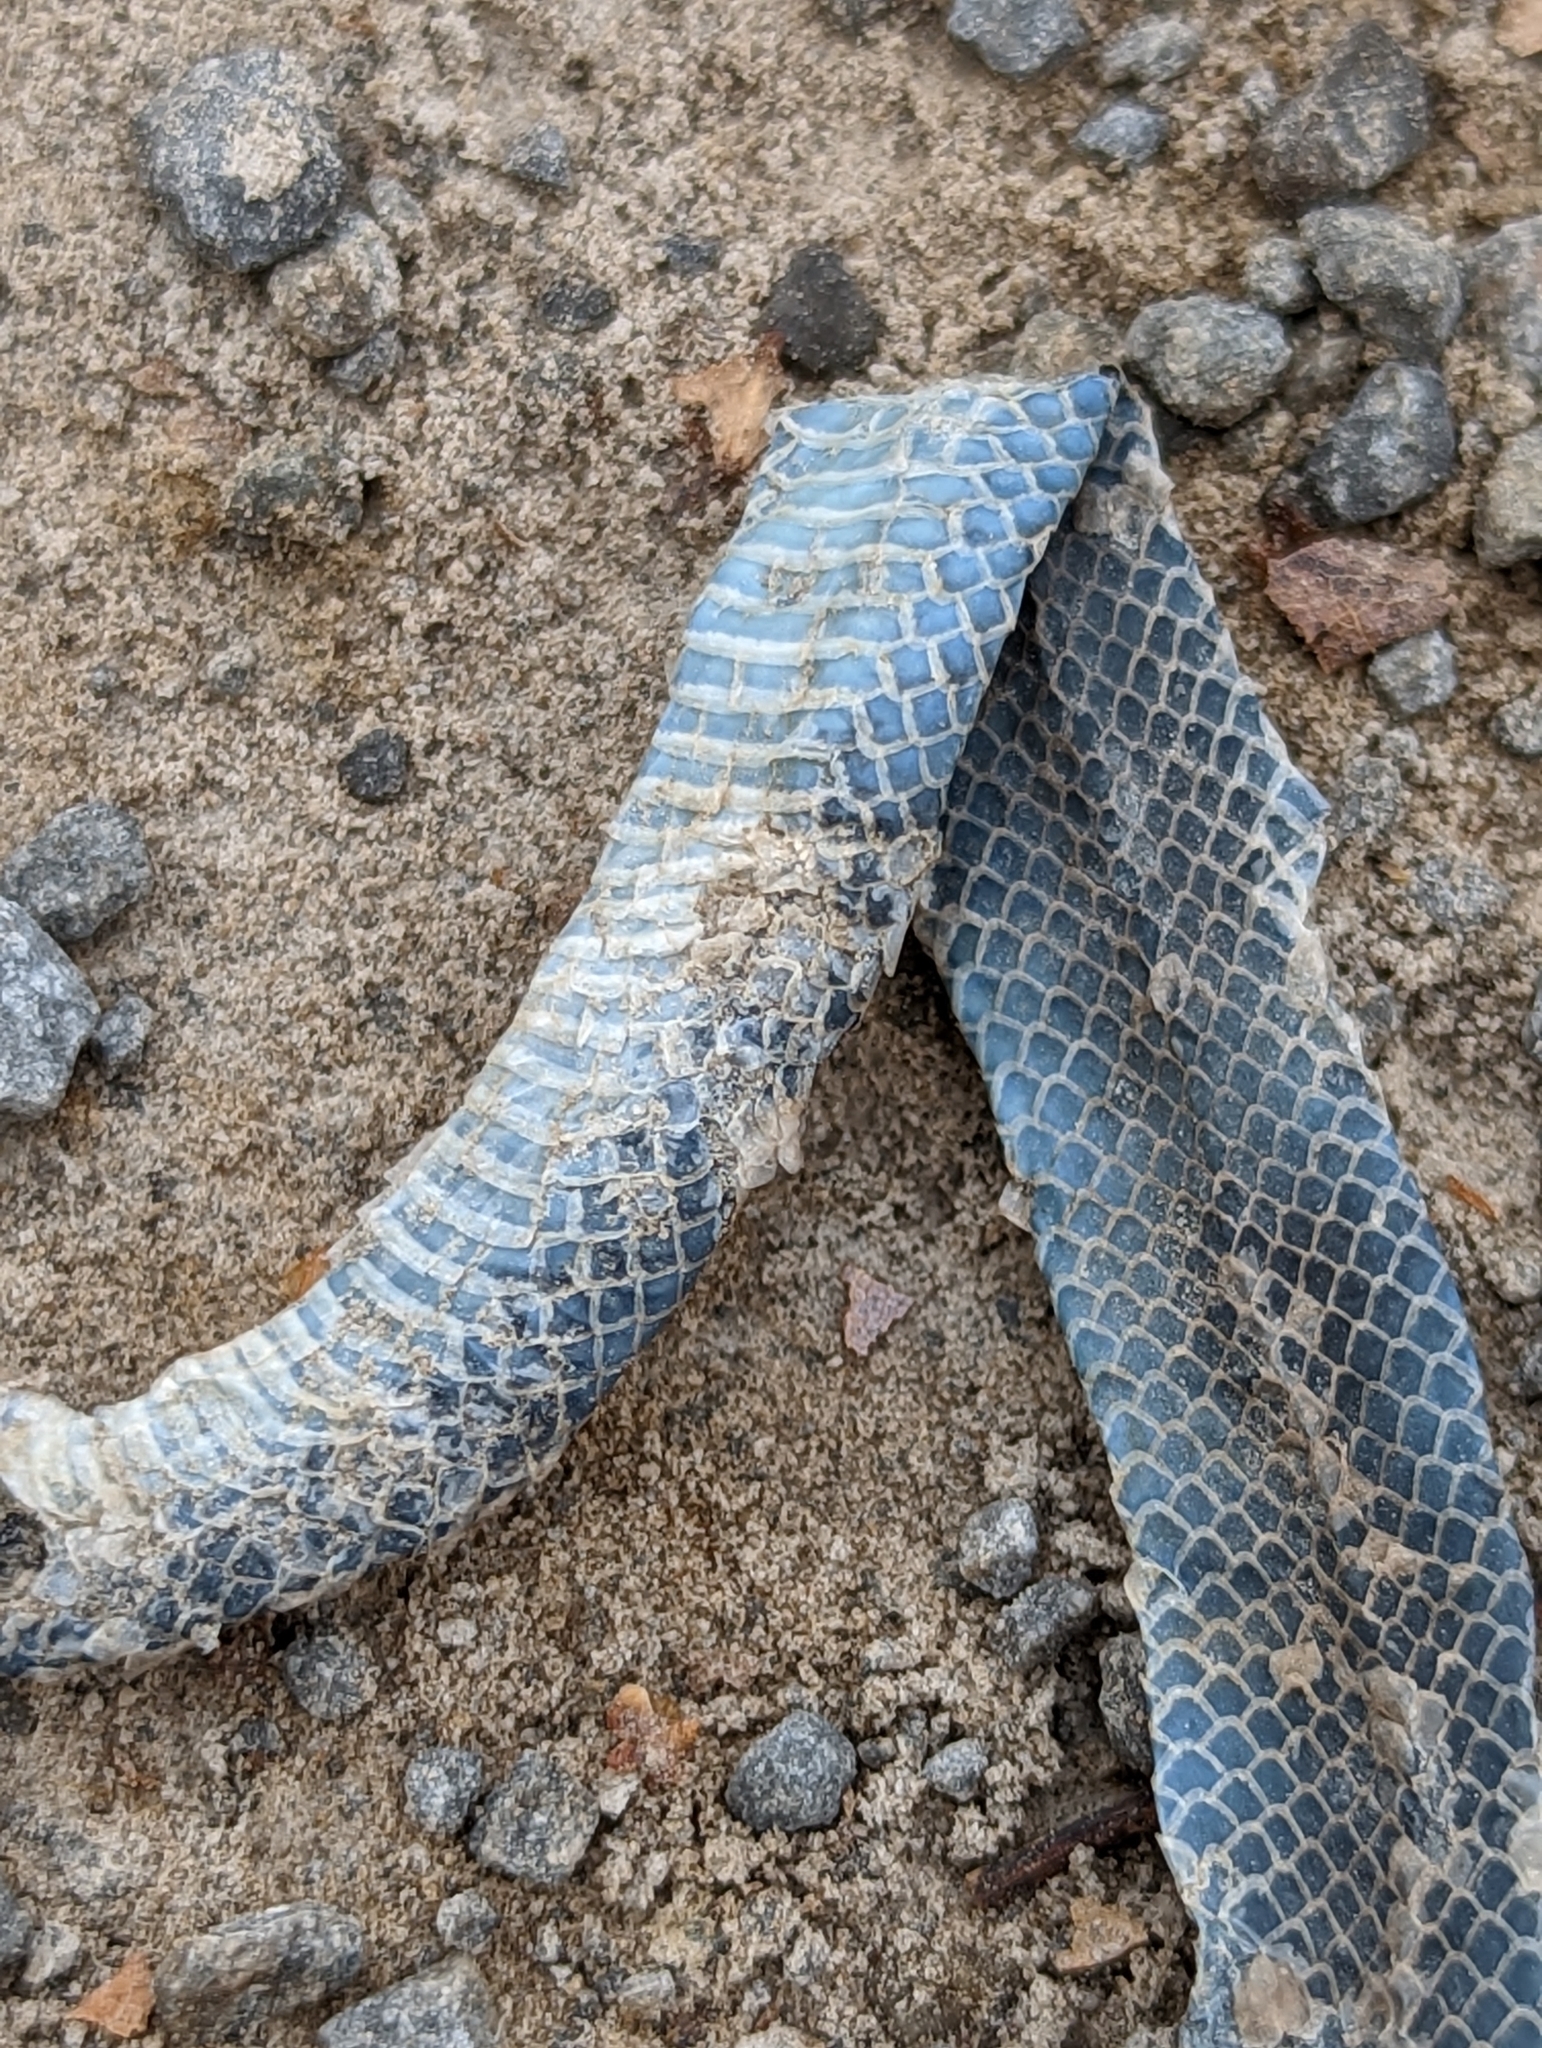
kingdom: Animalia
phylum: Chordata
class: Squamata
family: Colubridae
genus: Opheodrys
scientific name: Opheodrys vernalis
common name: Smooth green snake
